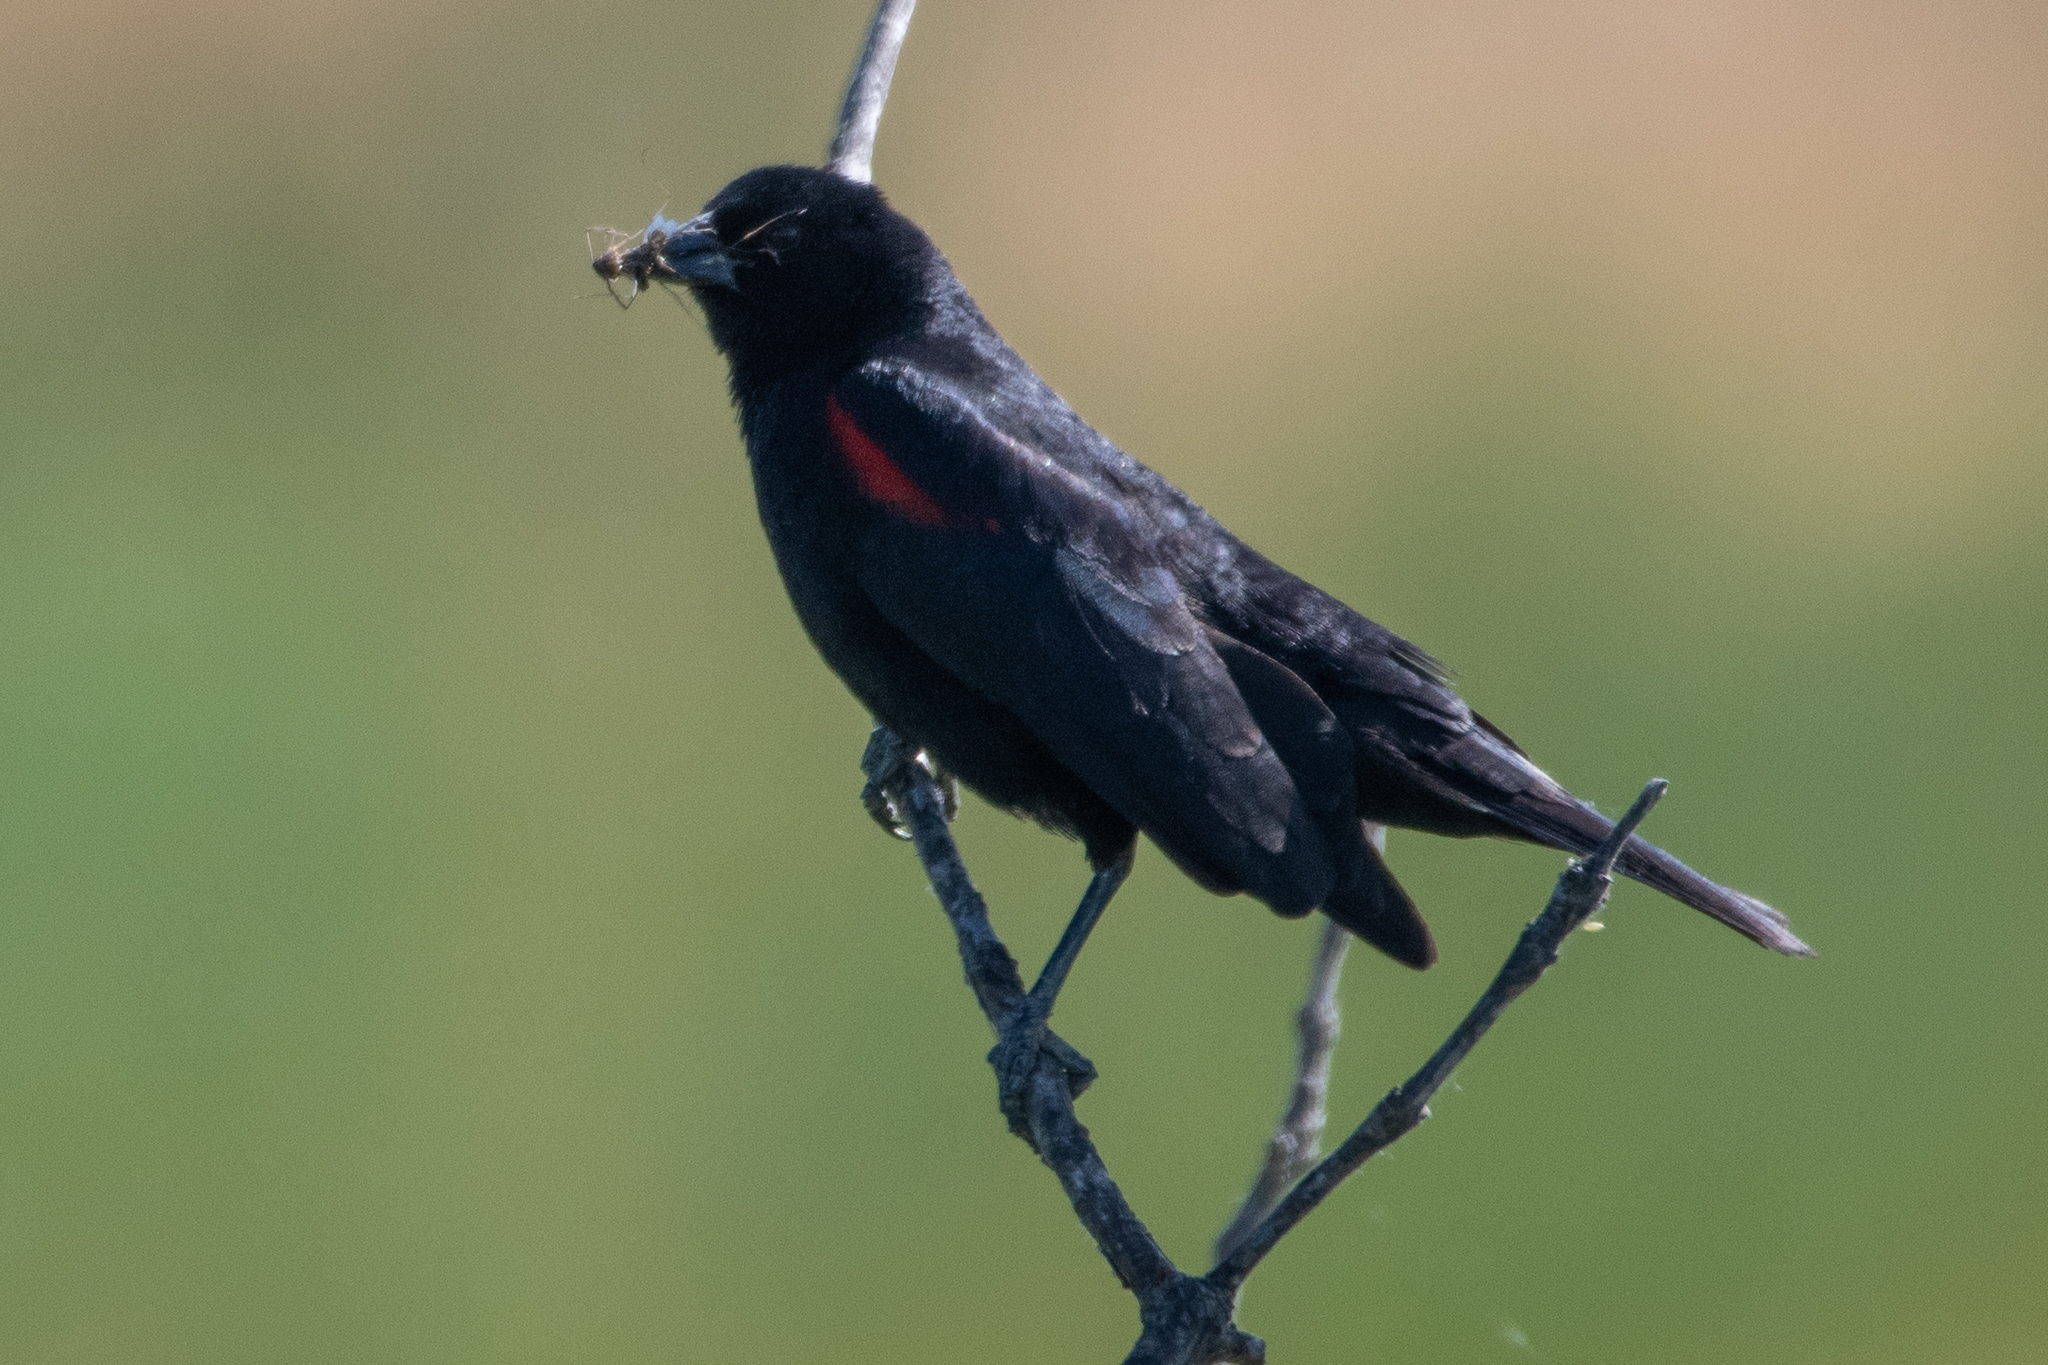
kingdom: Animalia
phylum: Chordata
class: Aves
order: Passeriformes
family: Icteridae
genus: Agelaius
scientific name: Agelaius phoeniceus
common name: Red-winged blackbird
